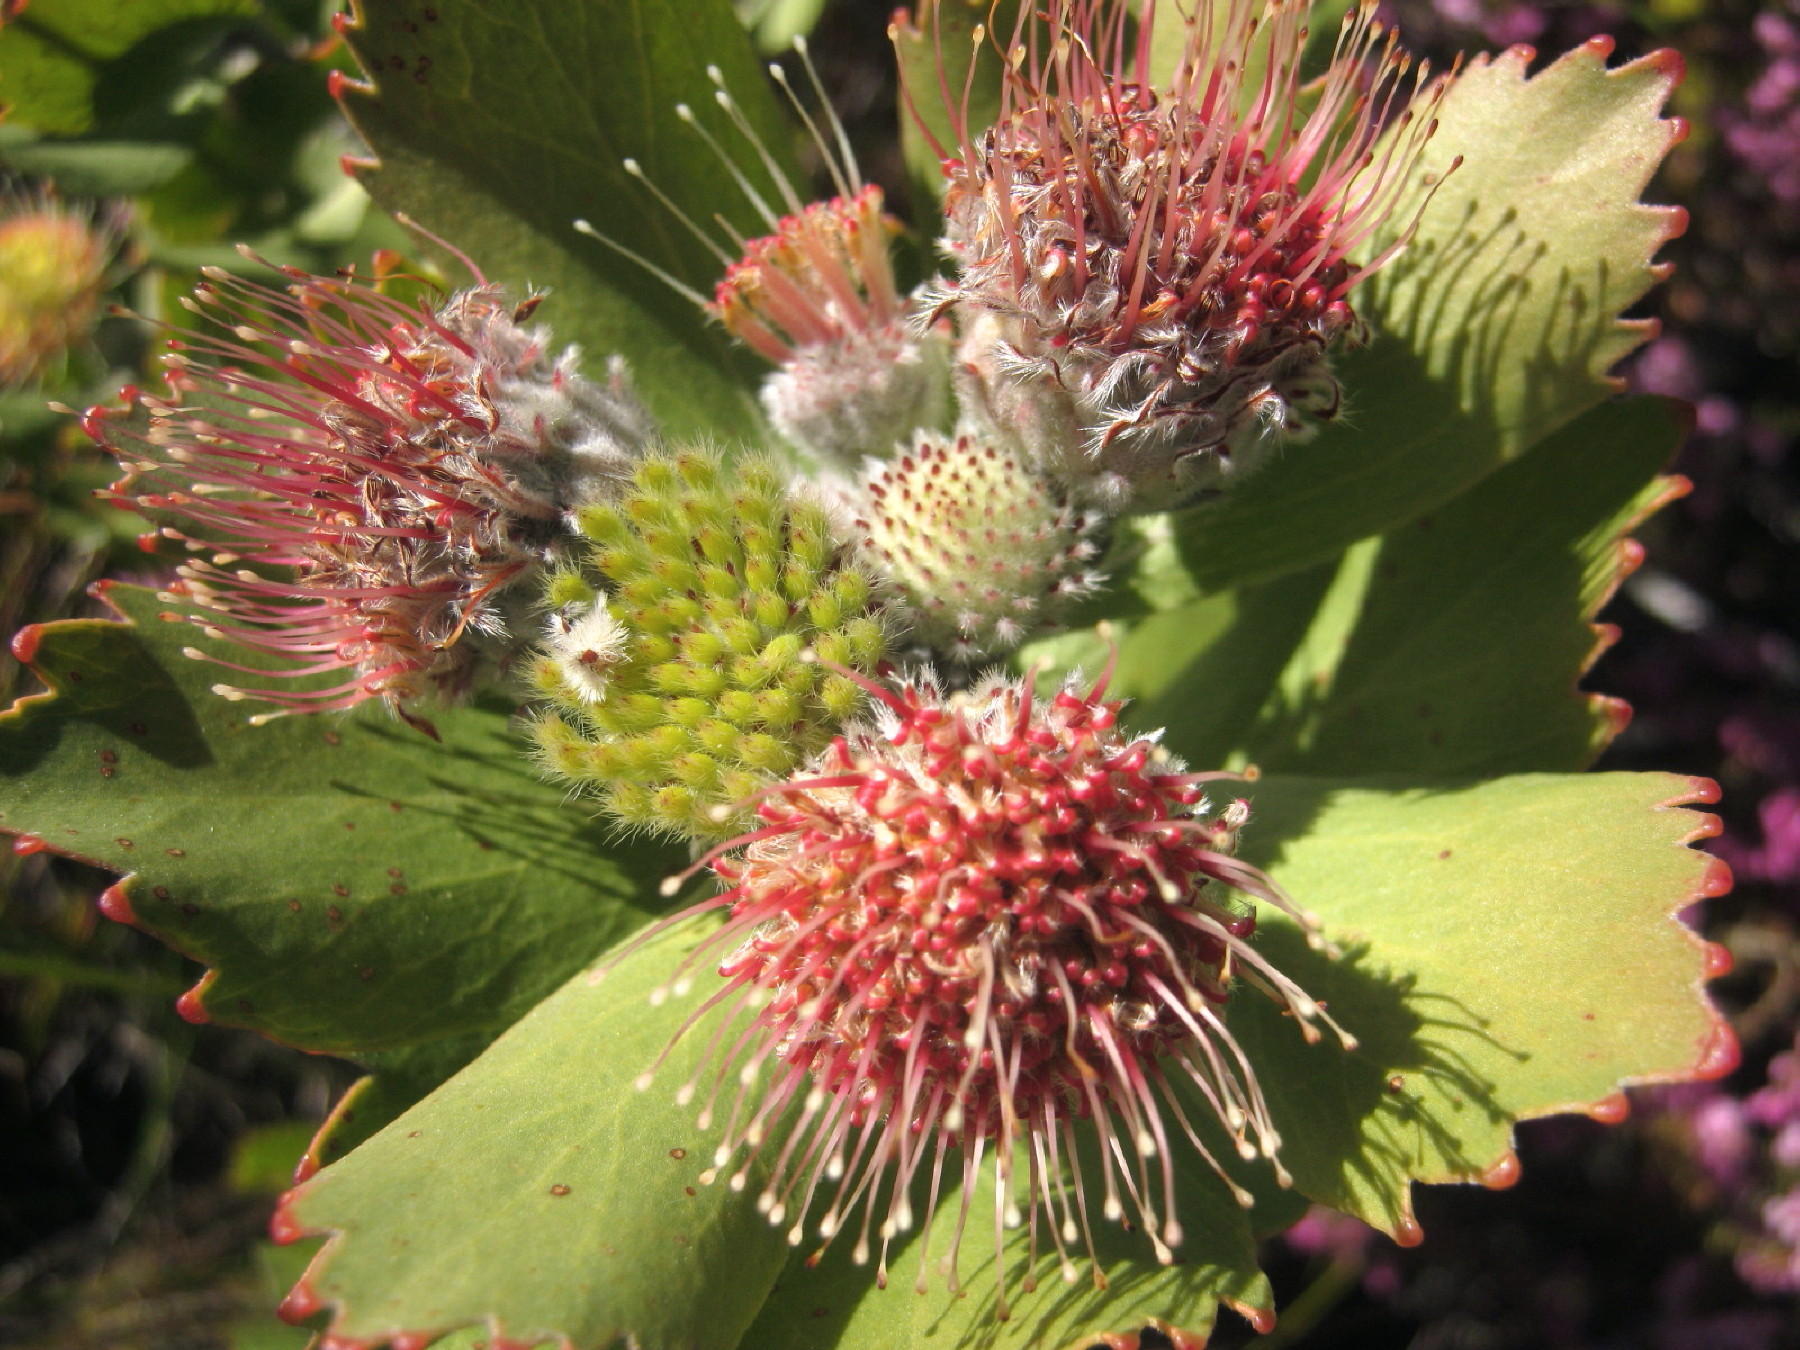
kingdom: Plantae
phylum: Tracheophyta
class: Magnoliopsida
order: Proteales
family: Proteaceae
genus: Leucospermum
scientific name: Leucospermum winteri
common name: Riversdale pincushion
